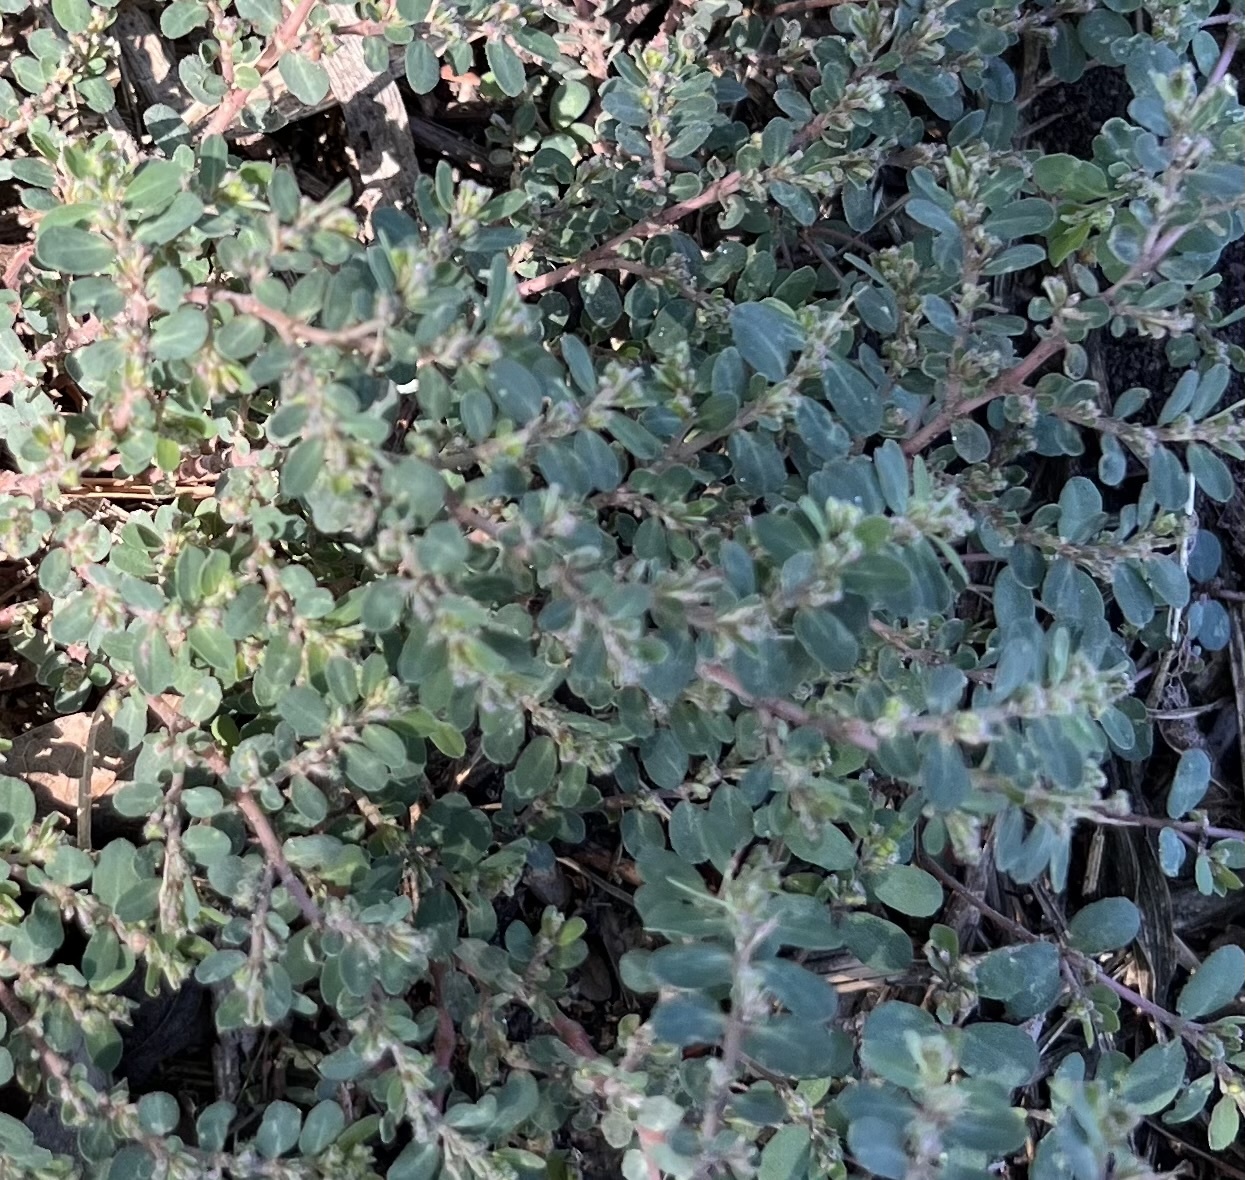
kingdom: Plantae
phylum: Tracheophyta
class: Magnoliopsida
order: Malpighiales
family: Euphorbiaceae
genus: Euphorbia
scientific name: Euphorbia prostrata
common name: Prostrate sandmat
